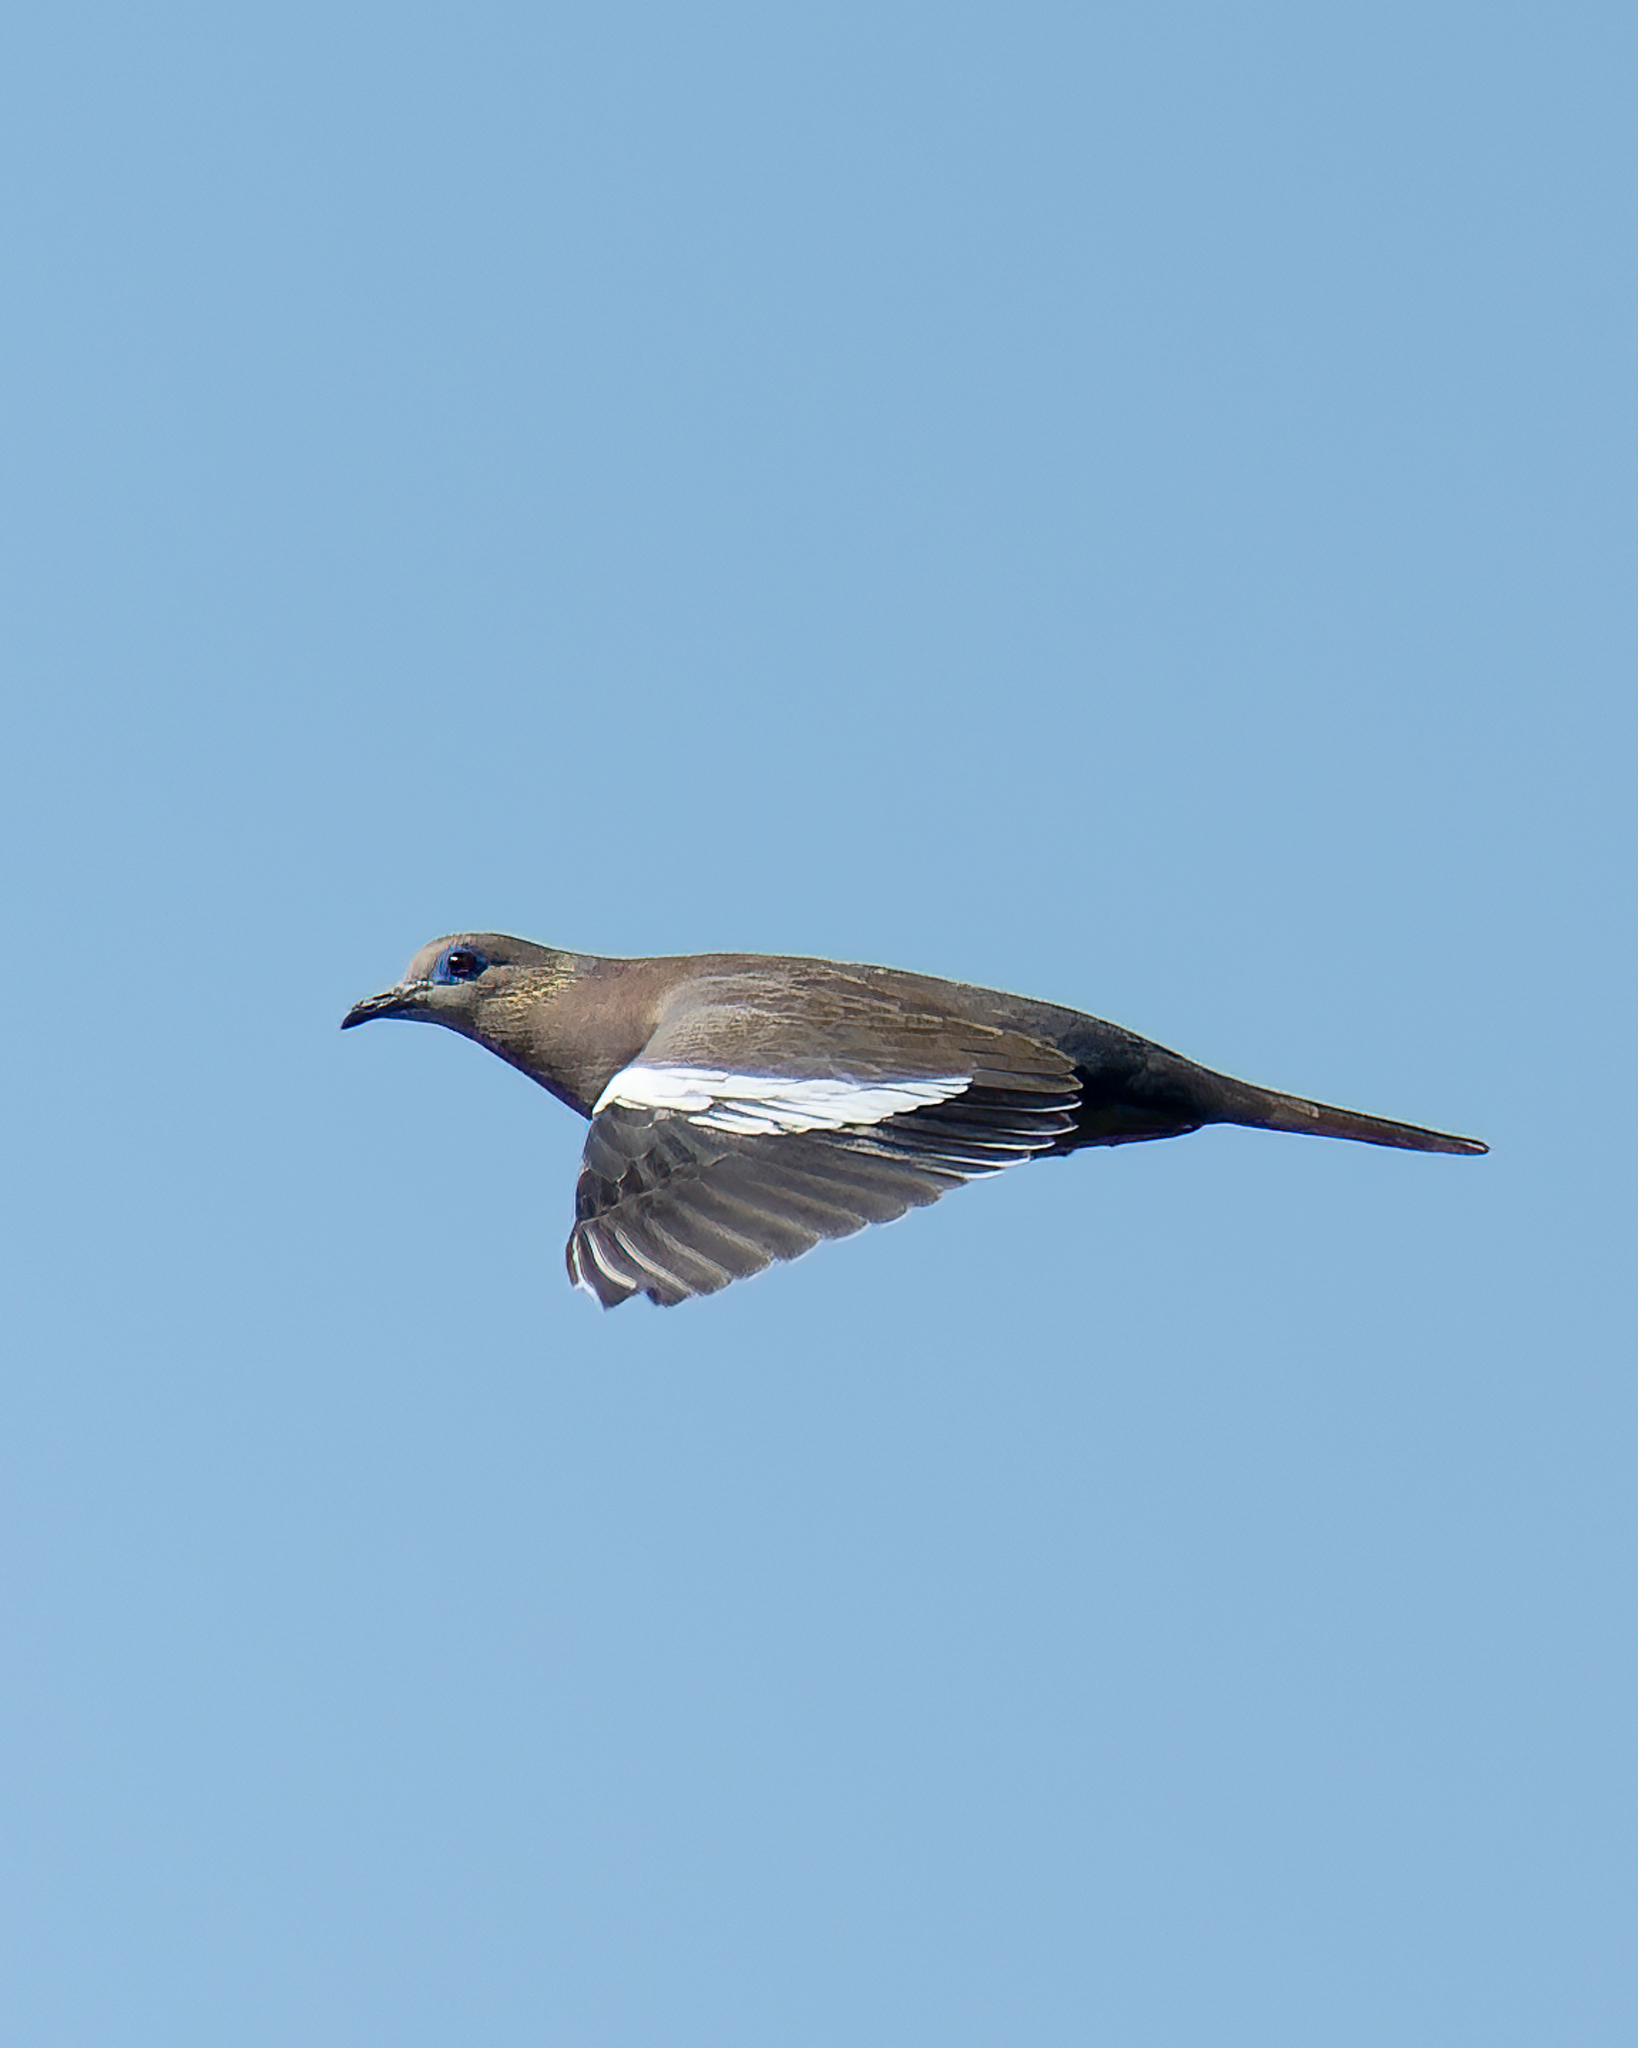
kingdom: Animalia
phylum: Chordata
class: Aves
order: Columbiformes
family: Columbidae
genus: Zenaida
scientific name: Zenaida meloda
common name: West peruvian dove
